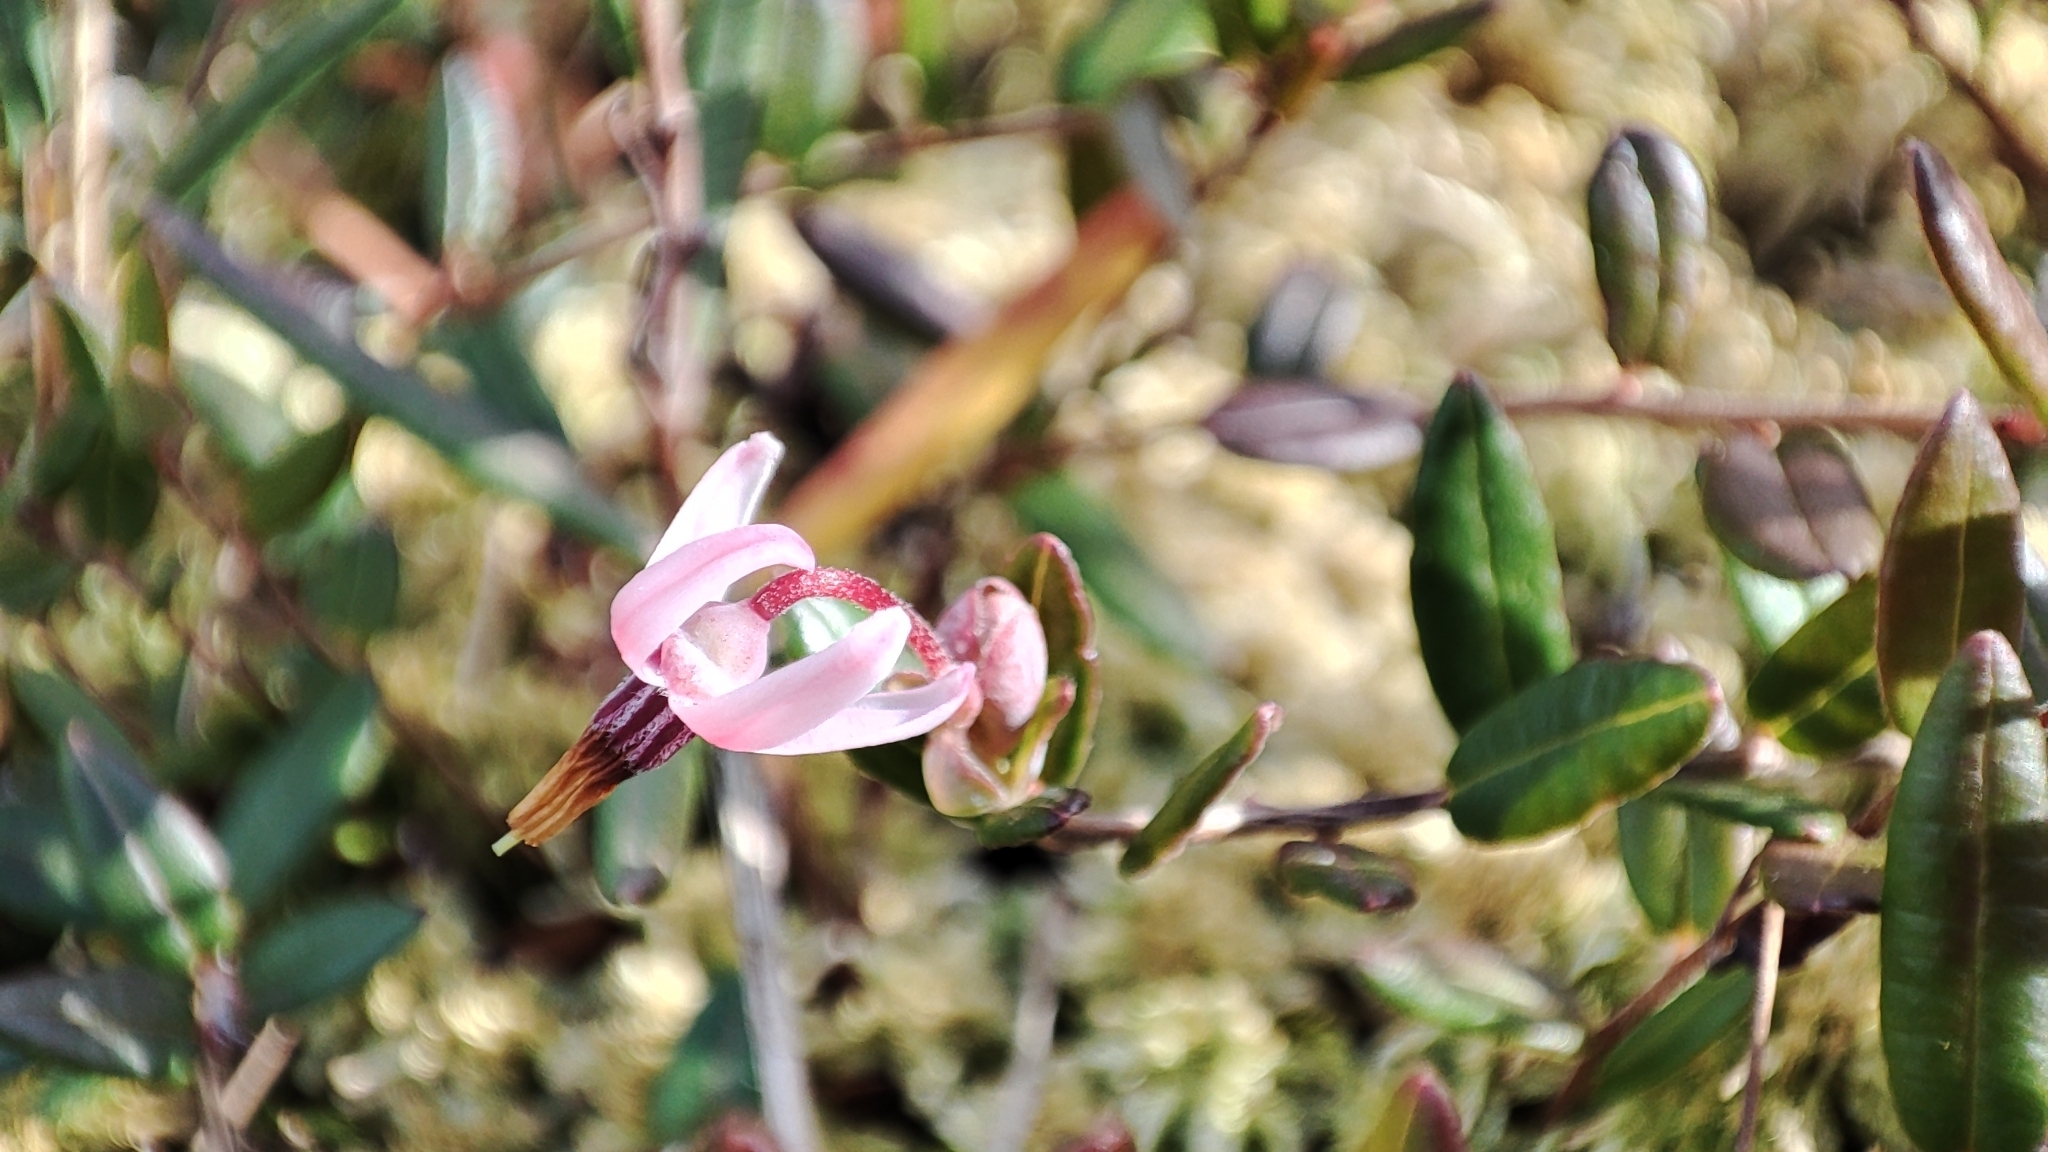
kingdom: Plantae
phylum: Tracheophyta
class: Magnoliopsida
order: Ericales
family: Ericaceae
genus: Vaccinium
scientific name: Vaccinium oxycoccos
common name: Cranberry
